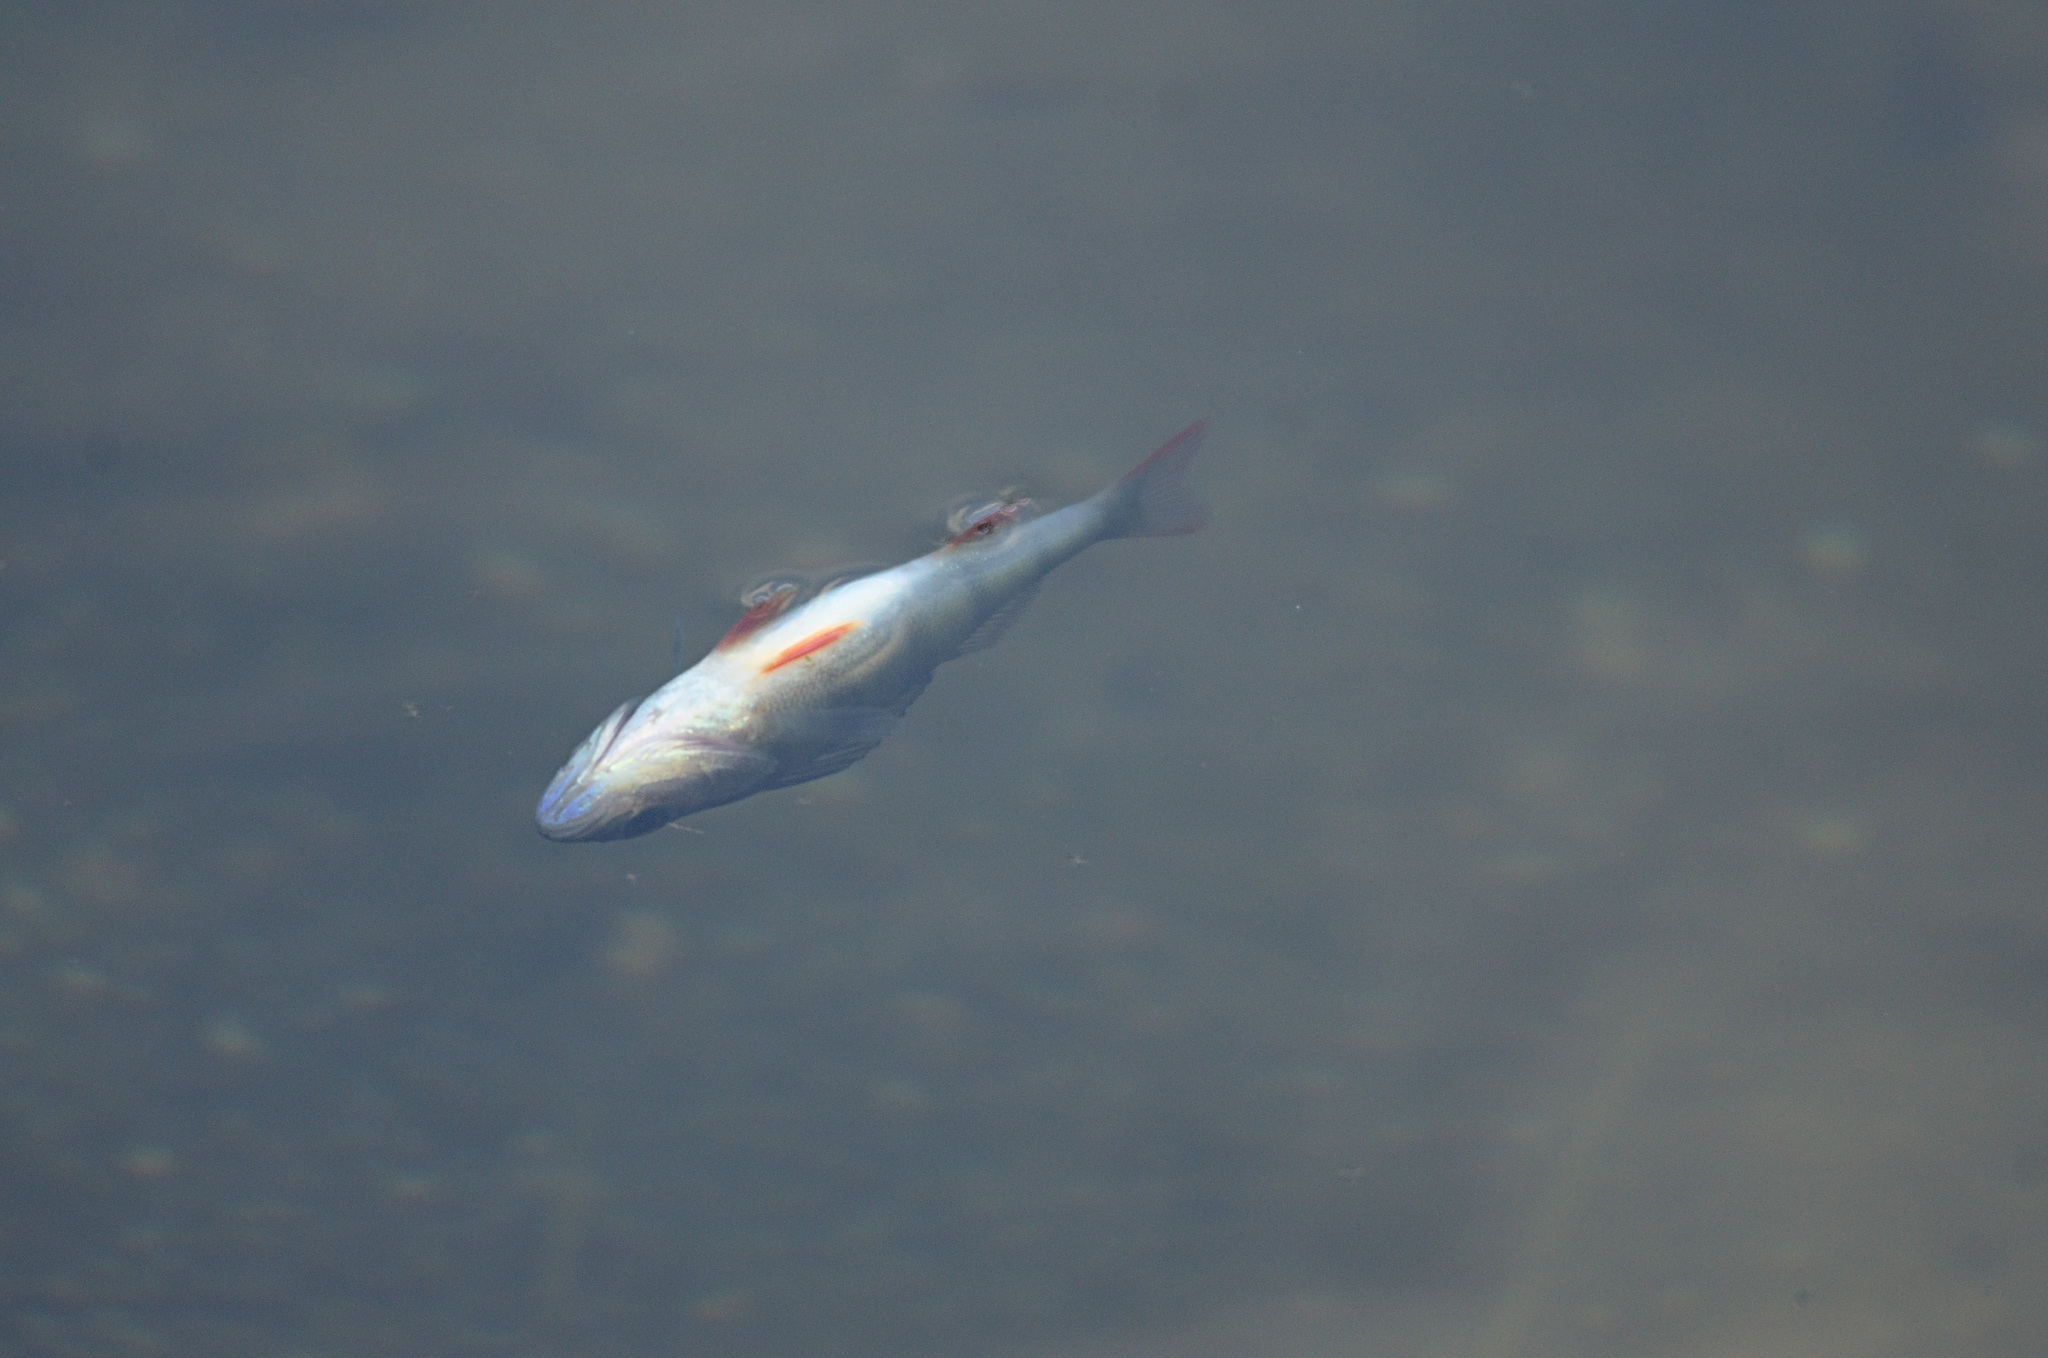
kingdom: Animalia
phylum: Chordata
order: Perciformes
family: Percidae
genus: Perca
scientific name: Perca fluviatilis
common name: Perch
